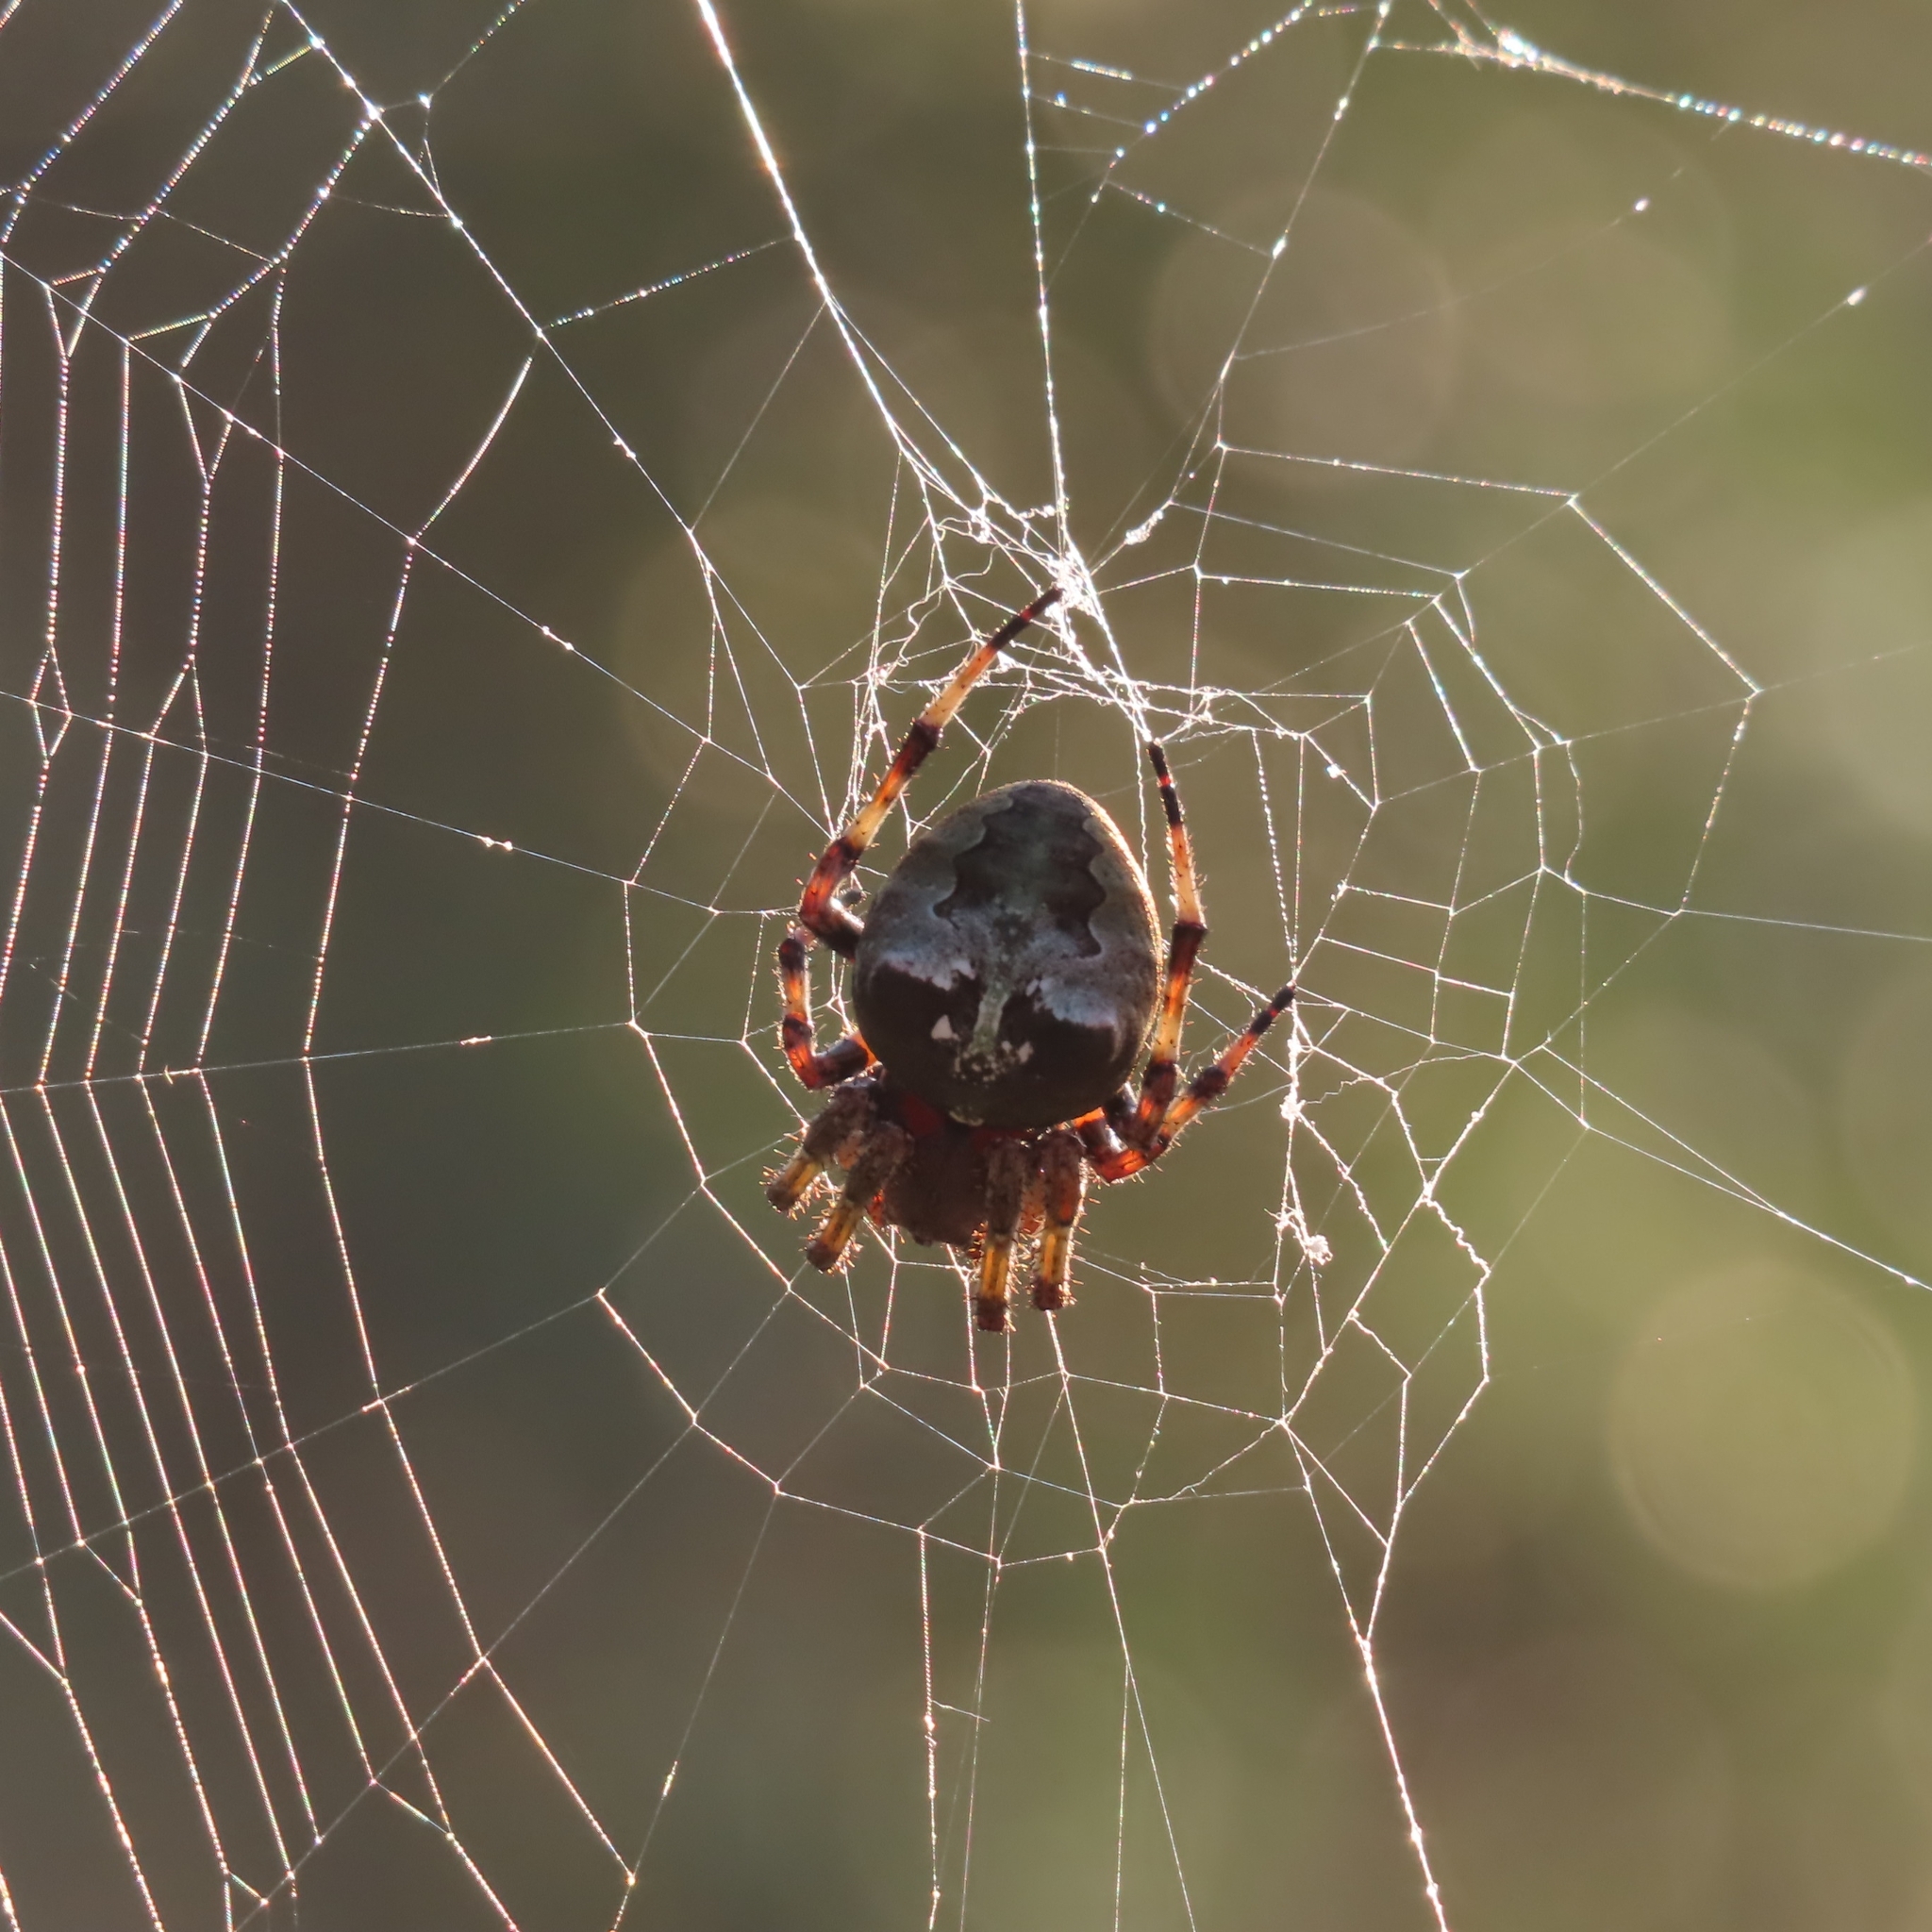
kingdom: Animalia
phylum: Arthropoda
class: Arachnida
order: Araneae
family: Araneidae
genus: Araneus
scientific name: Araneus bicentenarius
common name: Giant lichen orbweaver
